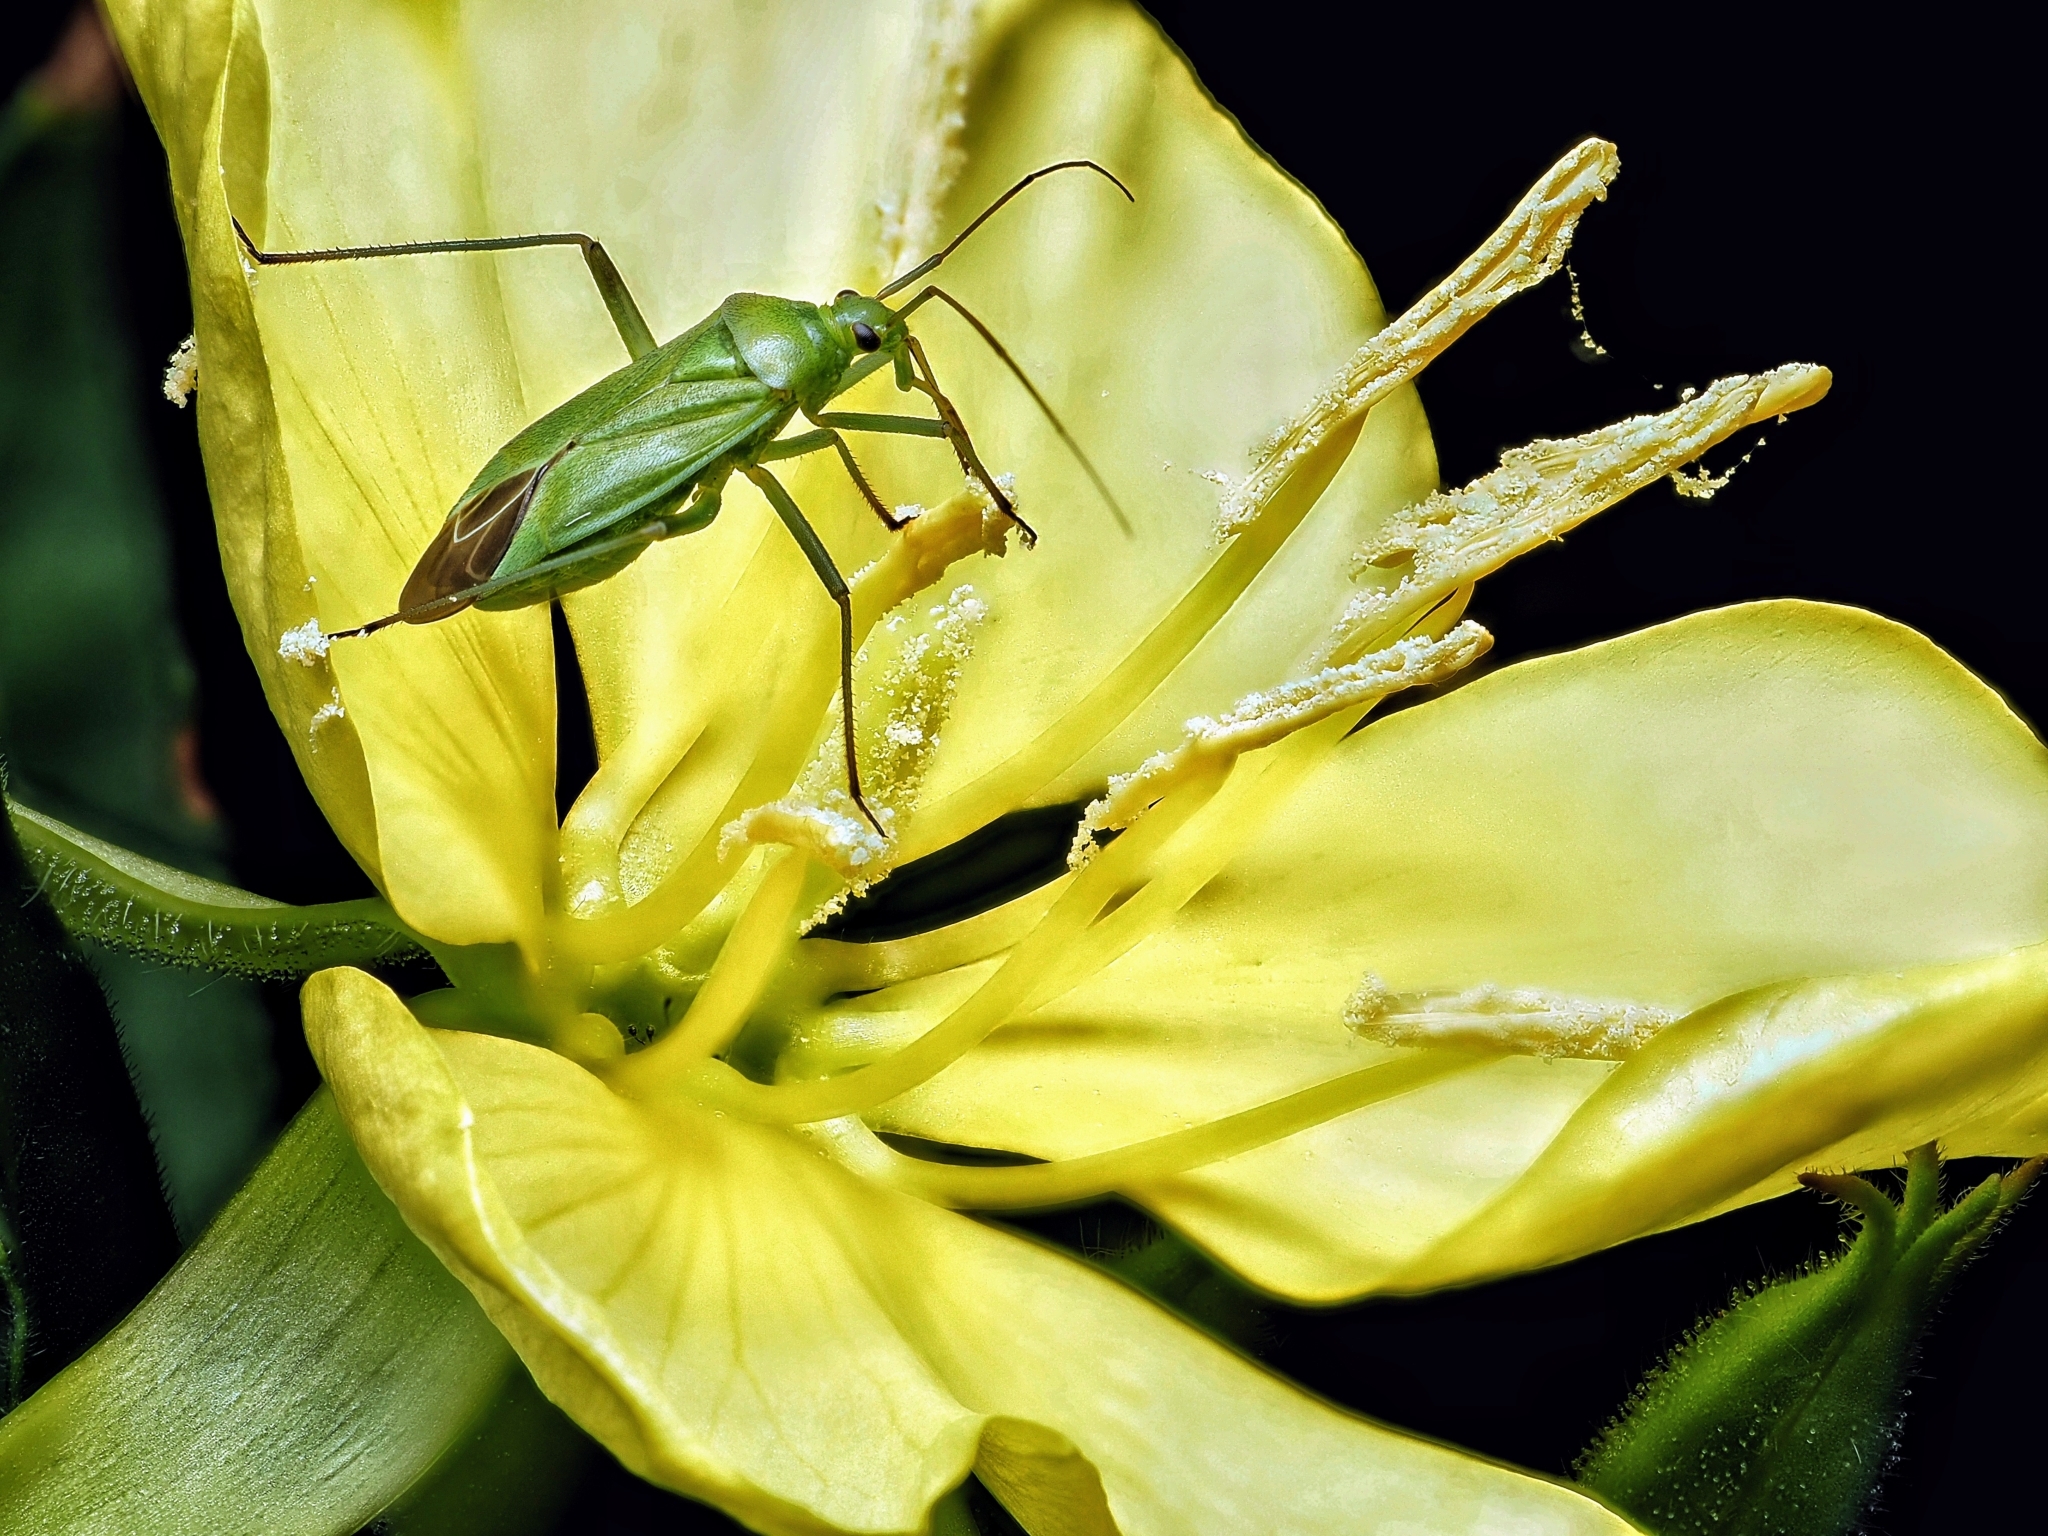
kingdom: Animalia
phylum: Arthropoda
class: Insecta
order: Hemiptera
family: Miridae
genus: Calocoris
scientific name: Calocoris affinis
